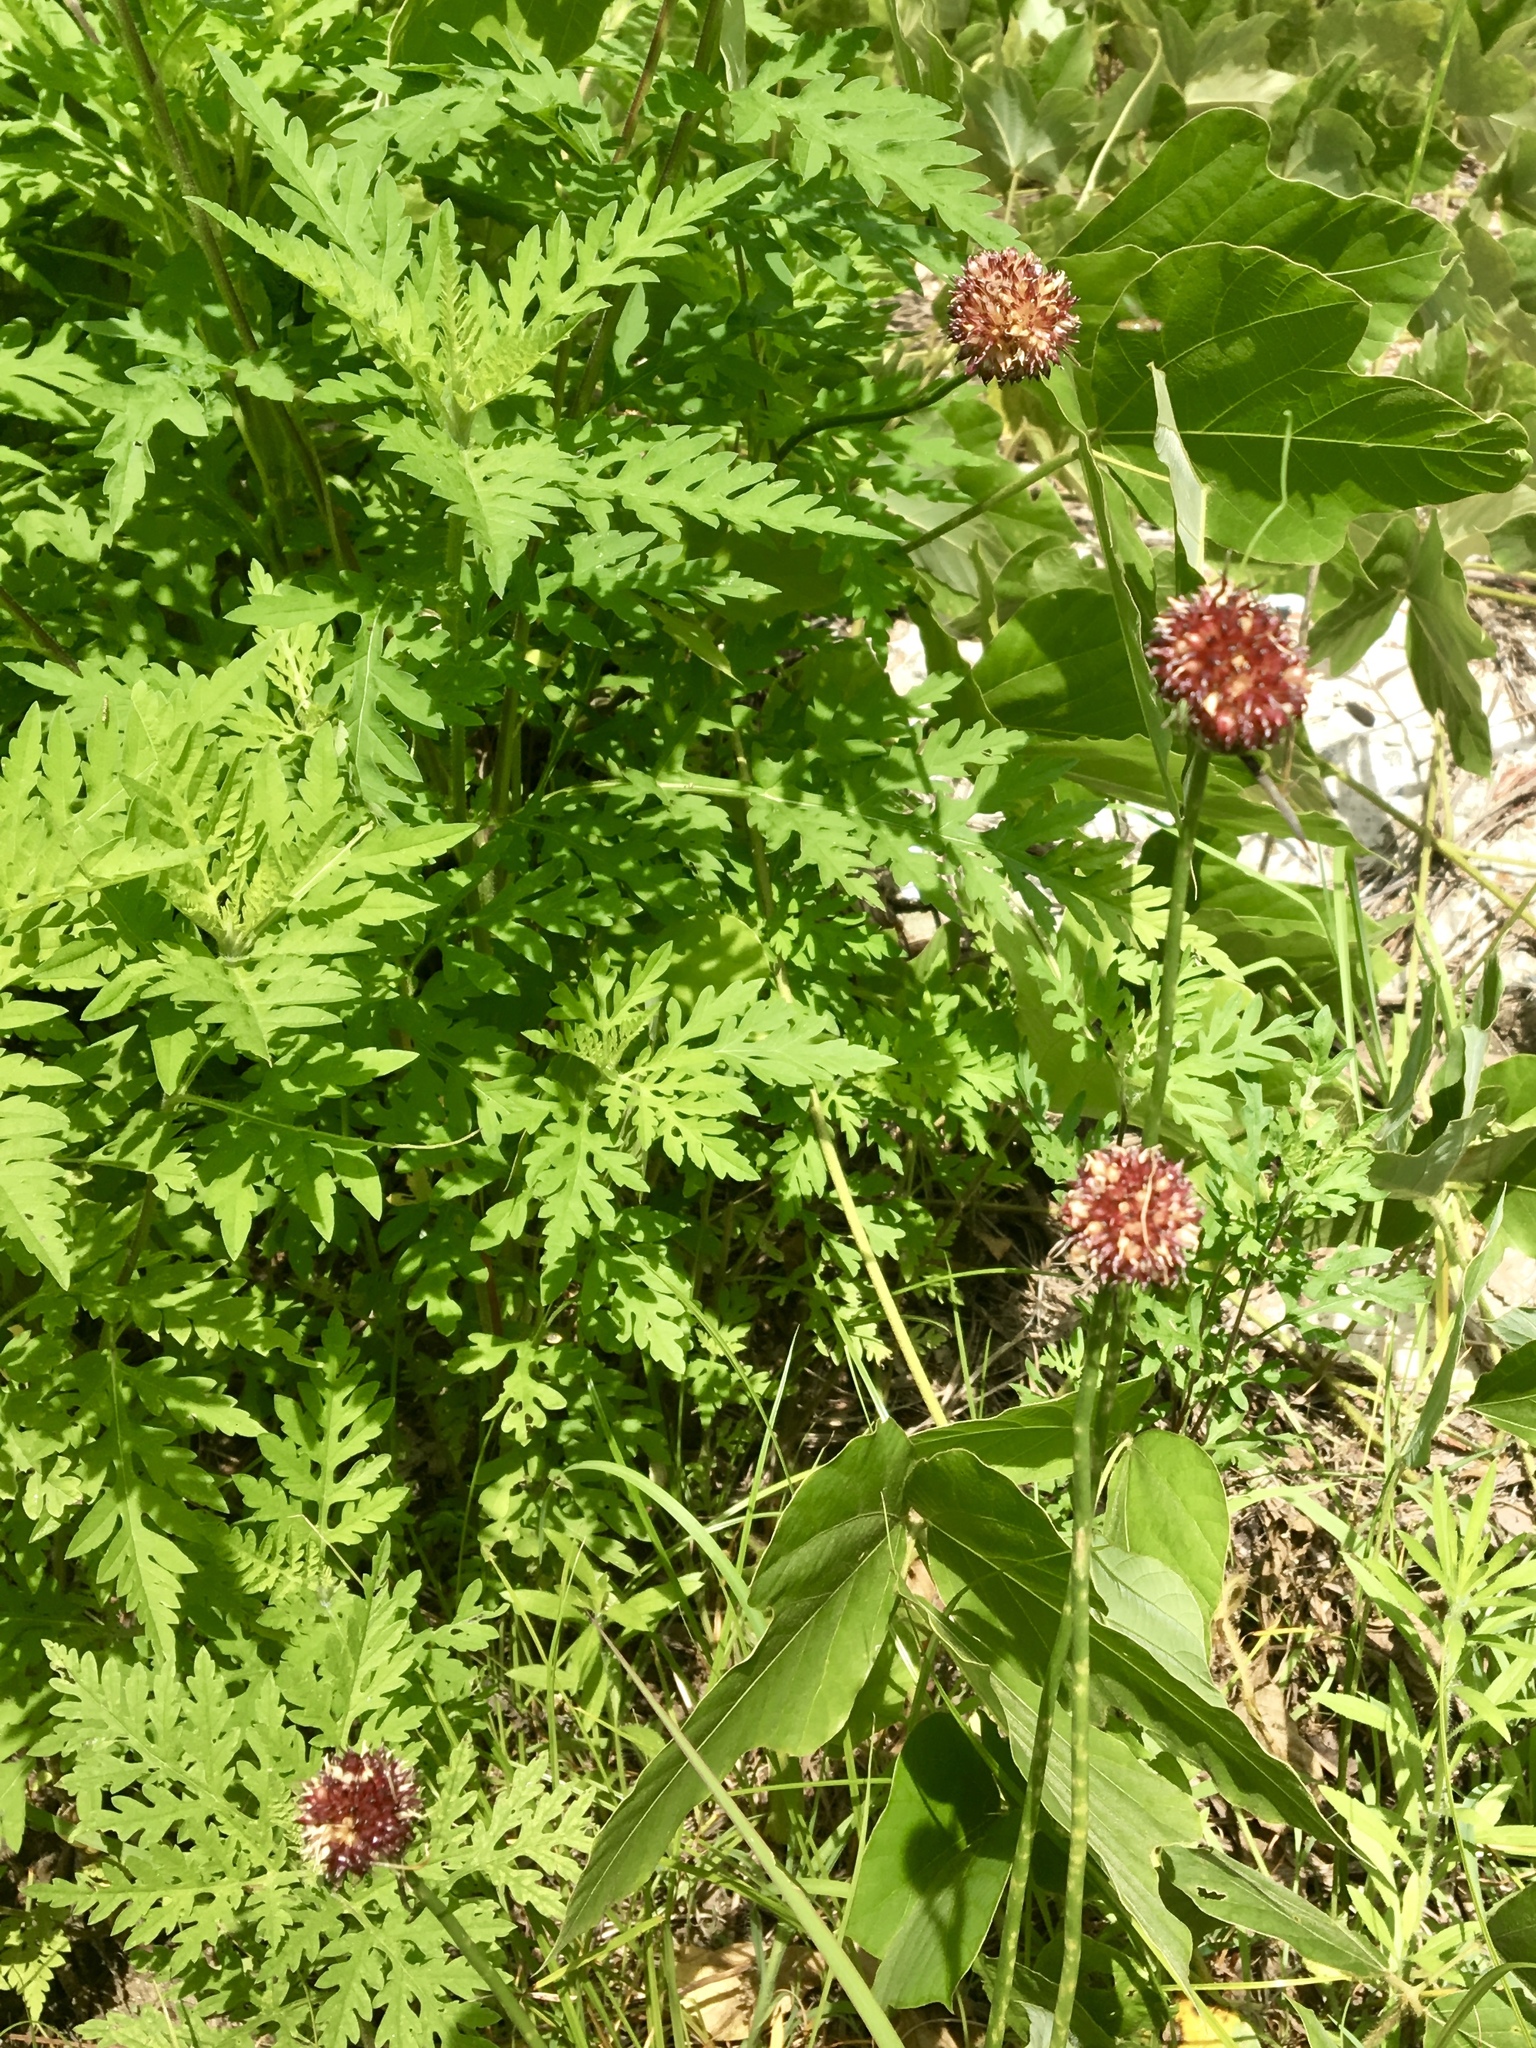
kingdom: Plantae
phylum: Tracheophyta
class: Liliopsida
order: Asparagales
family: Amaryllidaceae
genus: Allium
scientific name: Allium vineale
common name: Crow garlic
